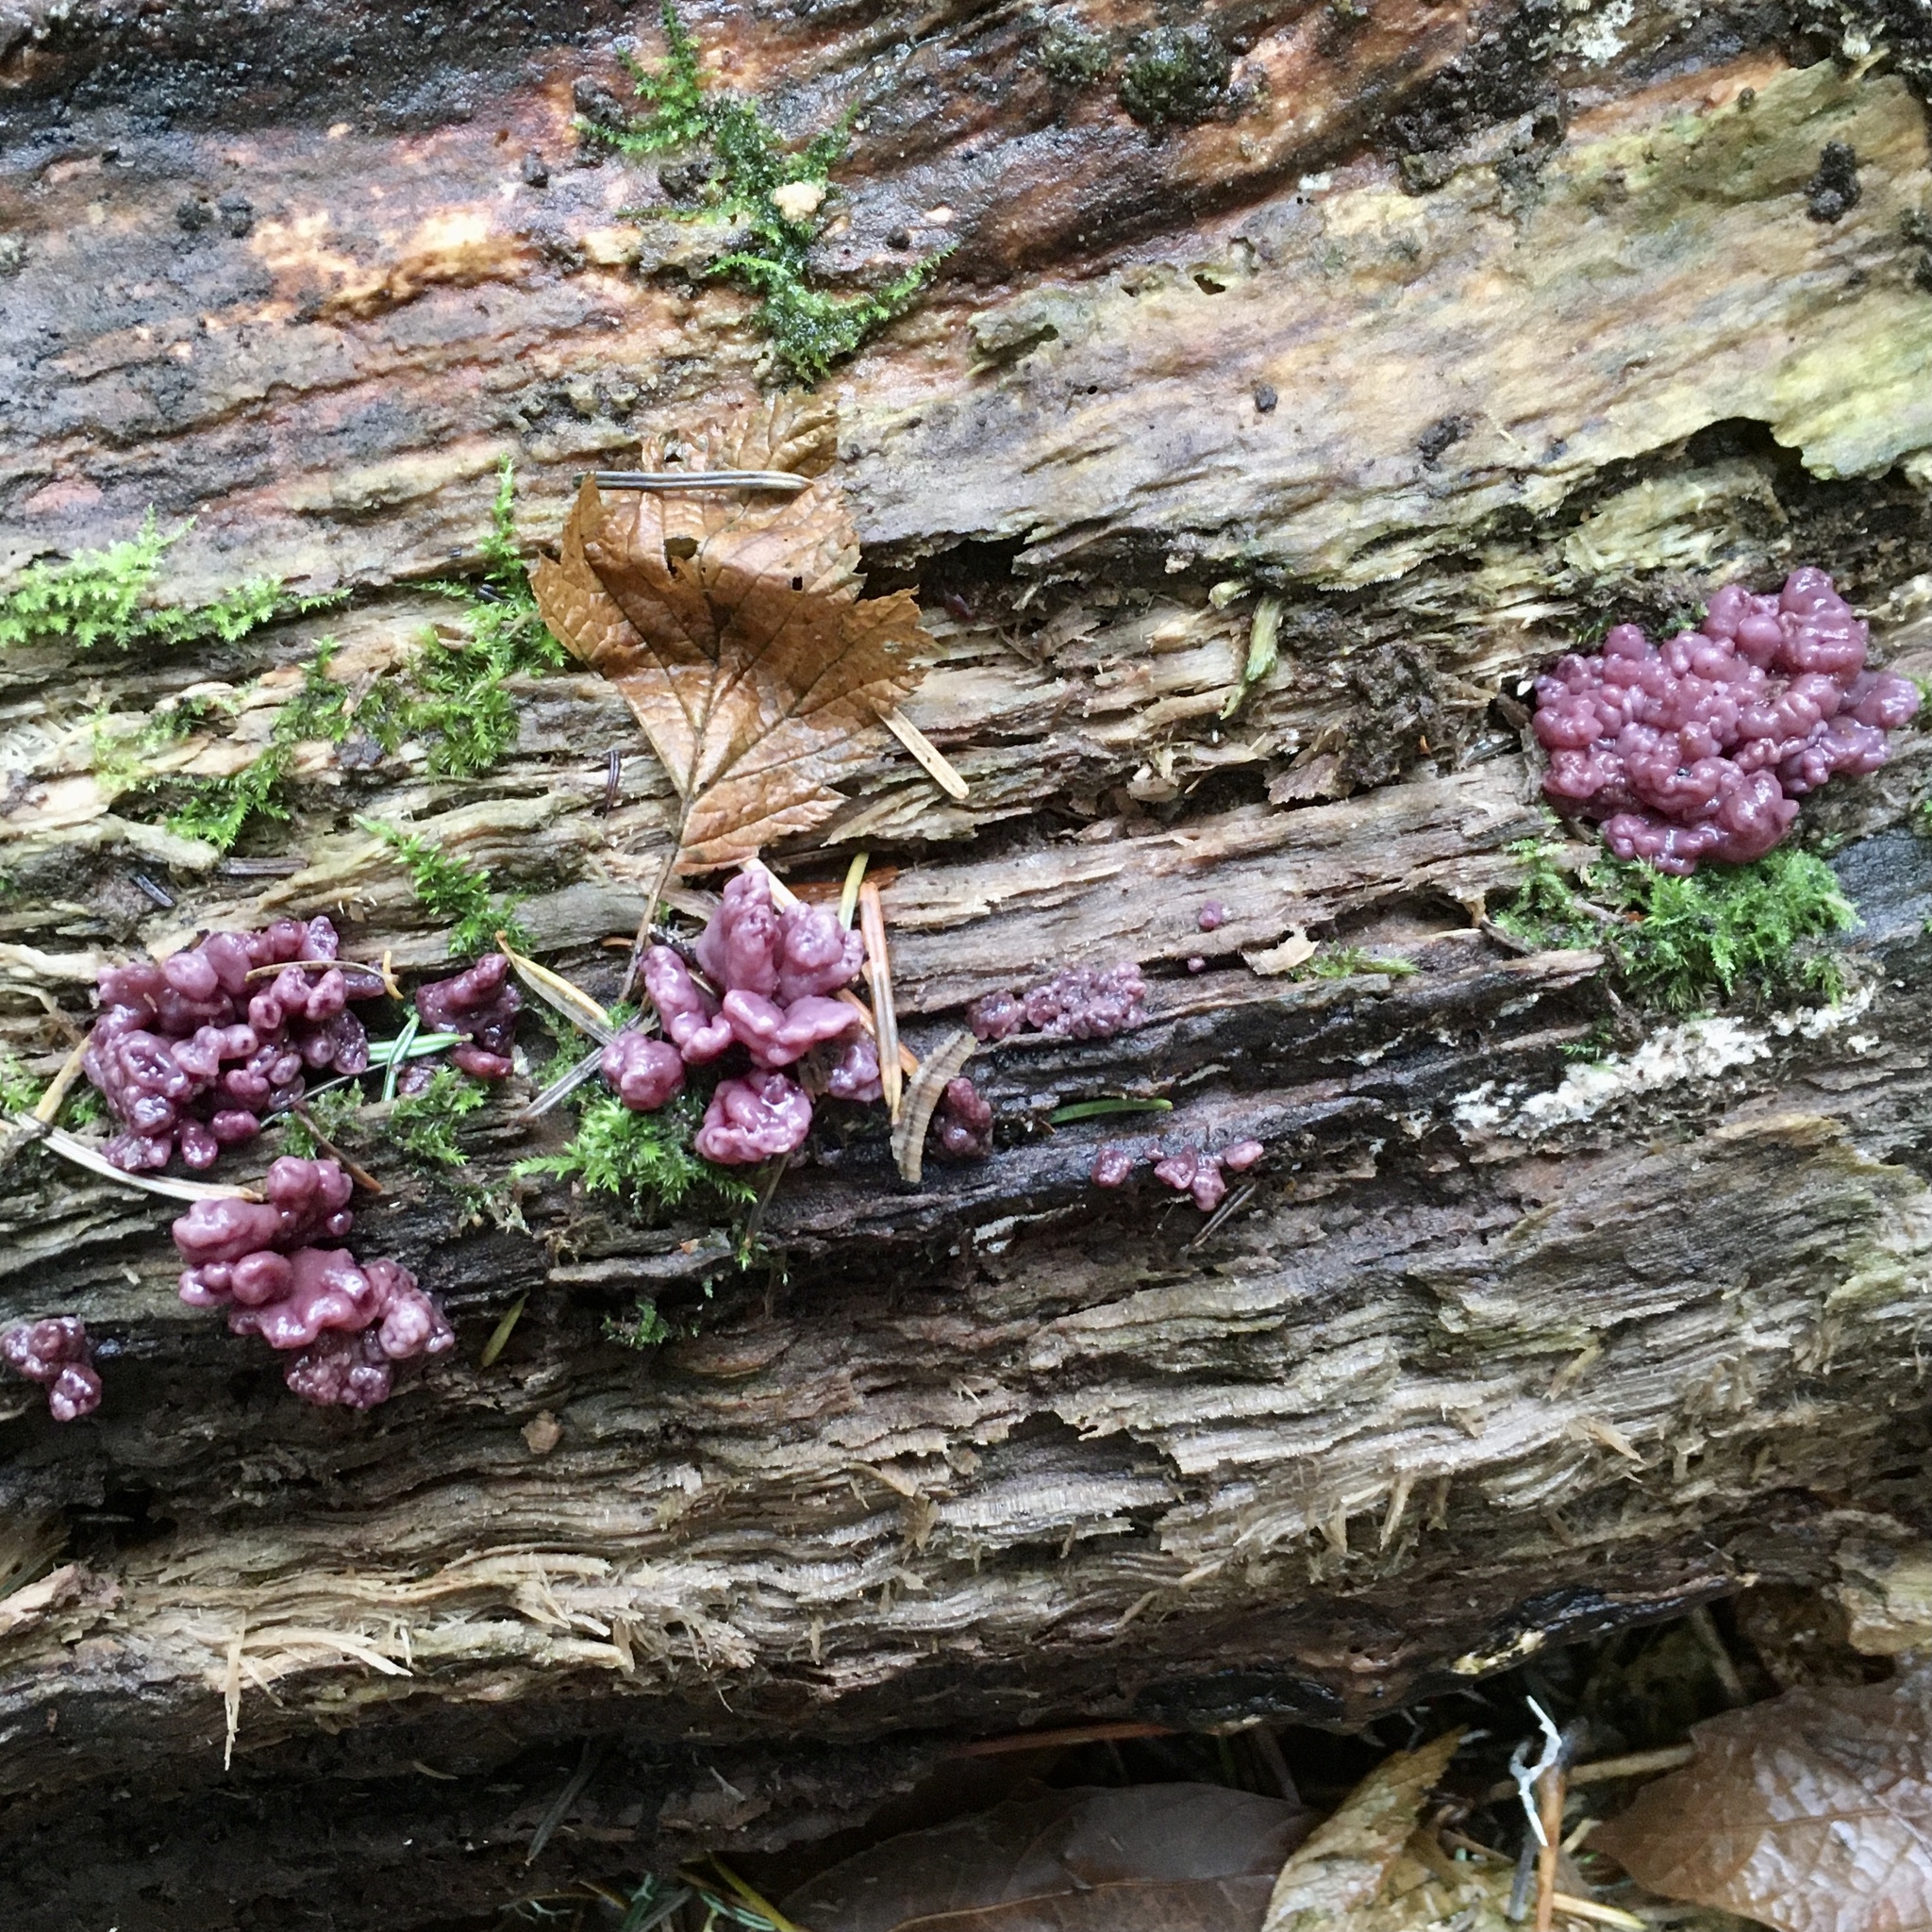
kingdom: Fungi
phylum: Ascomycota
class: Leotiomycetes
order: Helotiales
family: Gelatinodiscaceae
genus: Ascocoryne
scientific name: Ascocoryne sarcoides
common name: Purple jellydisc
